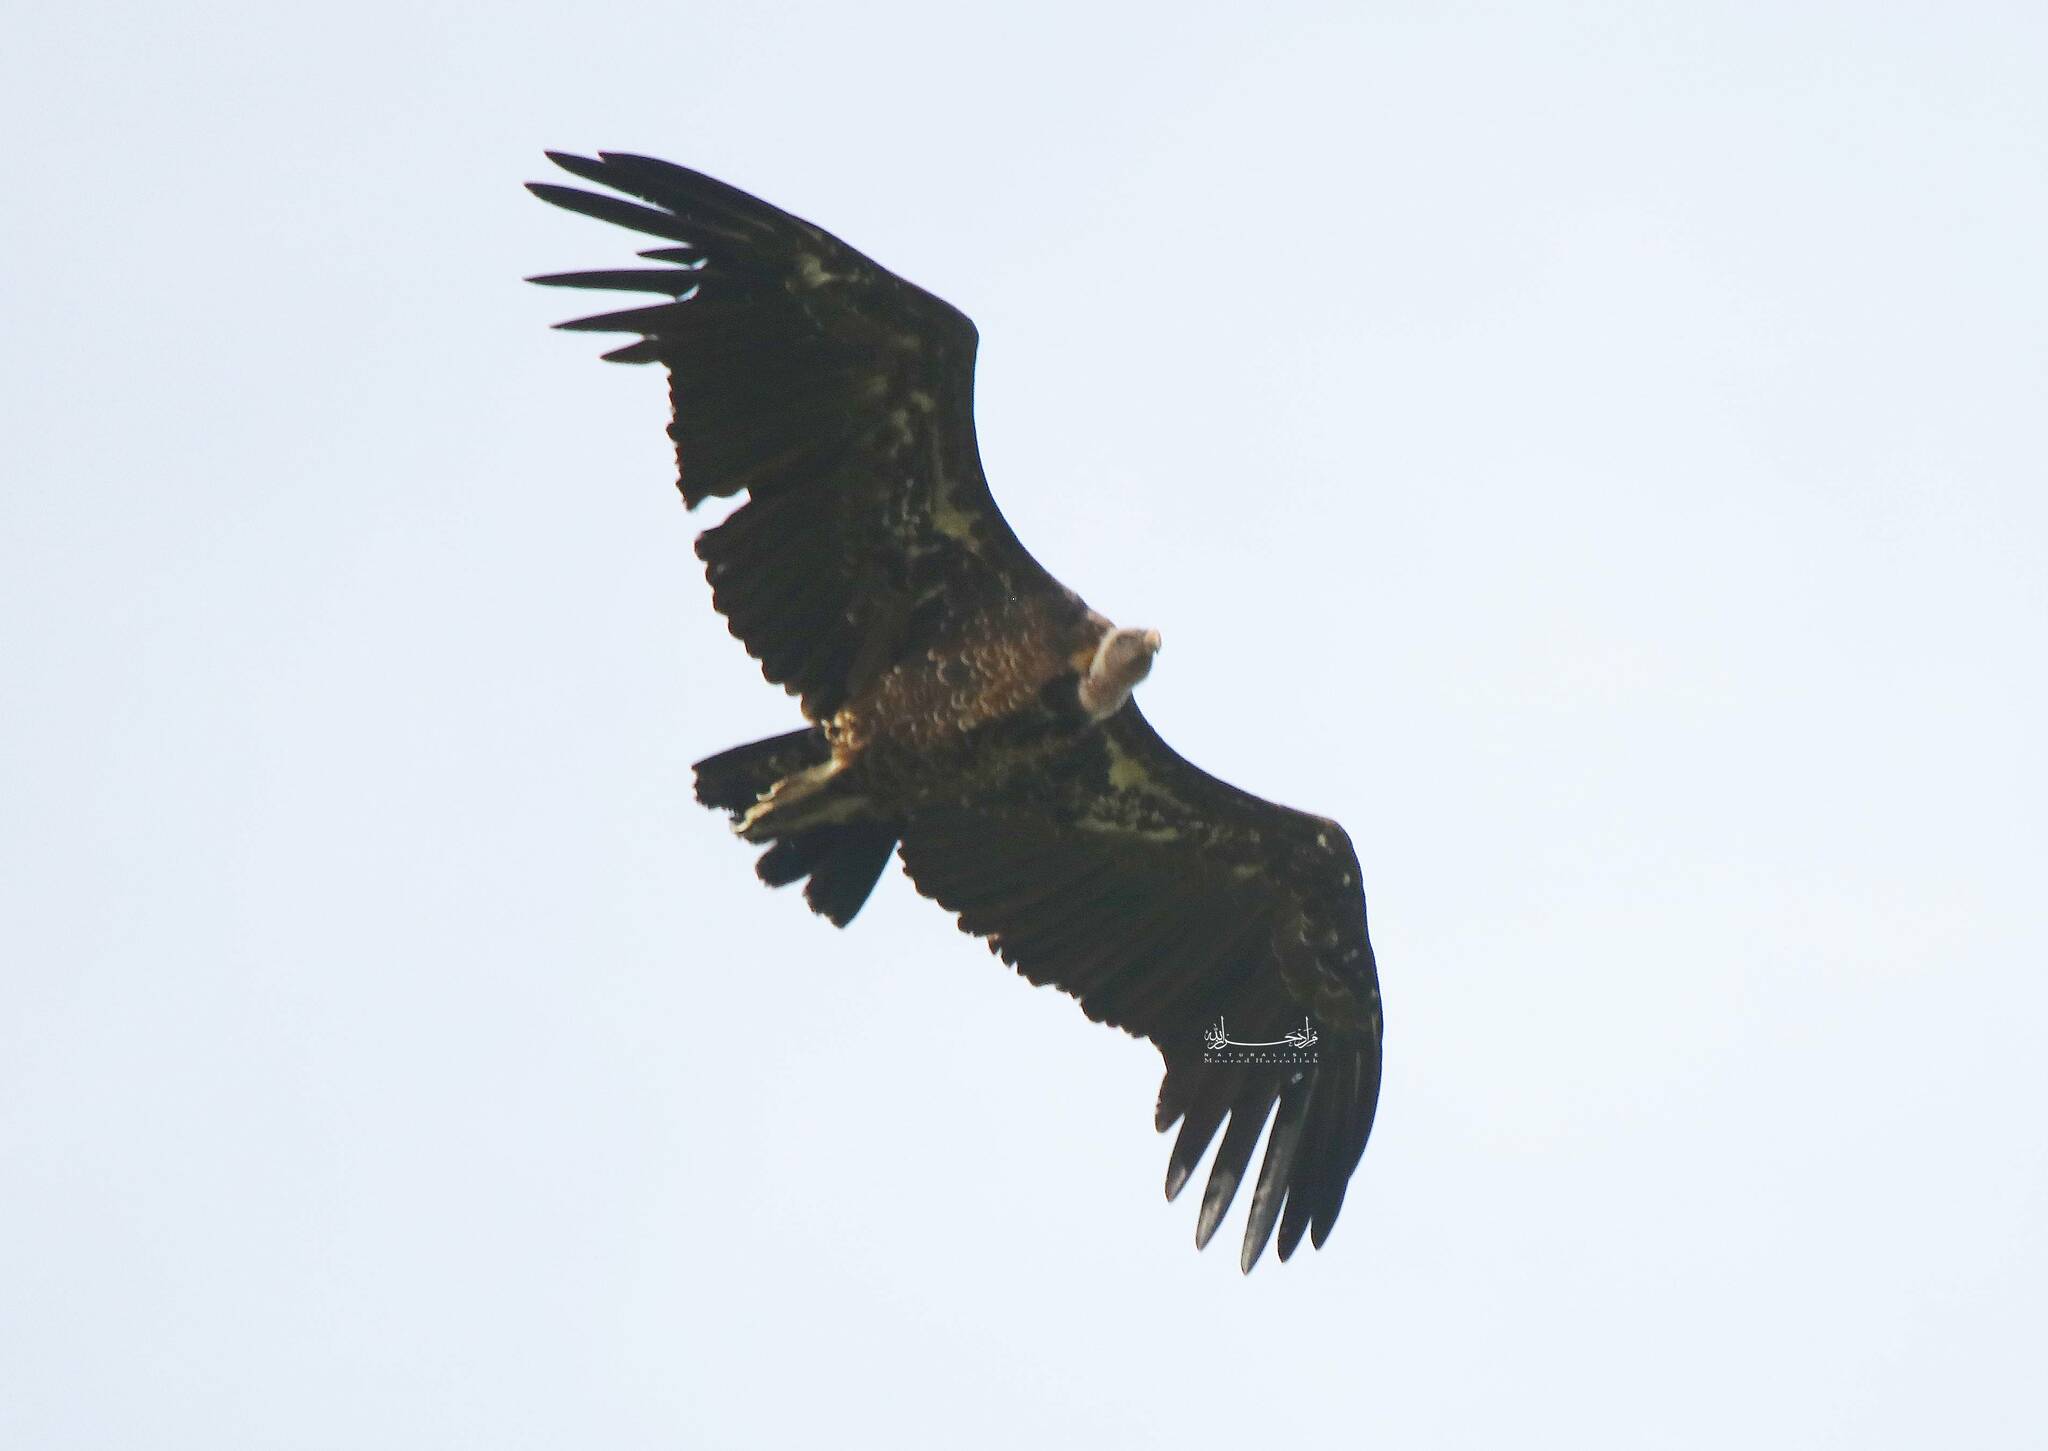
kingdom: Animalia
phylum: Chordata
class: Aves
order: Accipitriformes
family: Accipitridae
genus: Gyps
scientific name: Gyps rueppellii
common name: Rüppell's vulture
